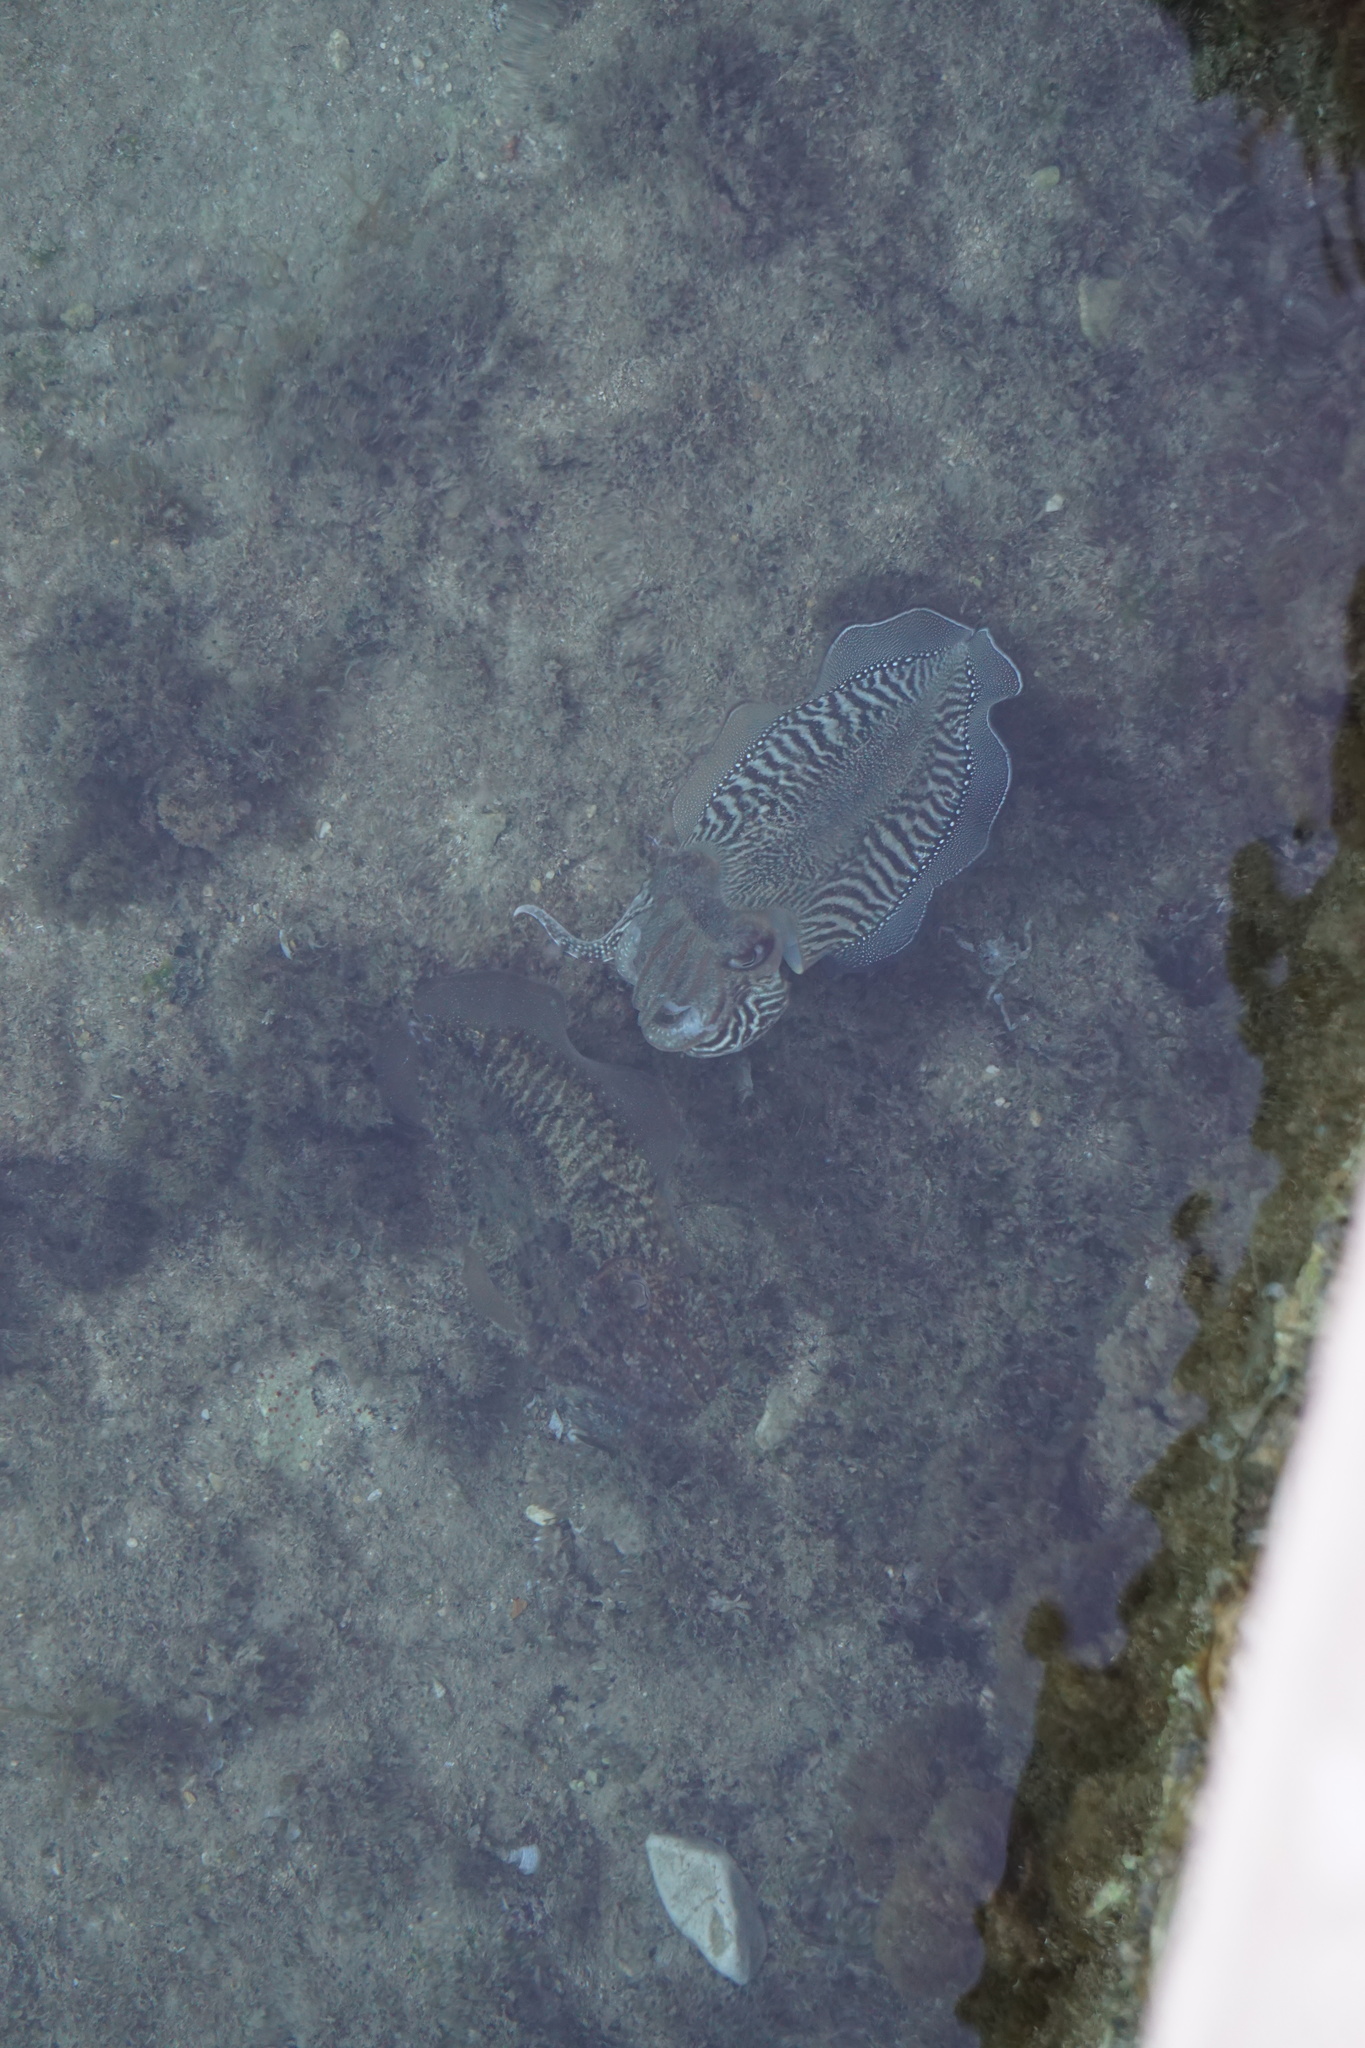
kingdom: Animalia
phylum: Mollusca
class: Cephalopoda
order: Sepiida
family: Sepiidae
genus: Sepia
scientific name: Sepia officinalis
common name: Common cuttlefish
